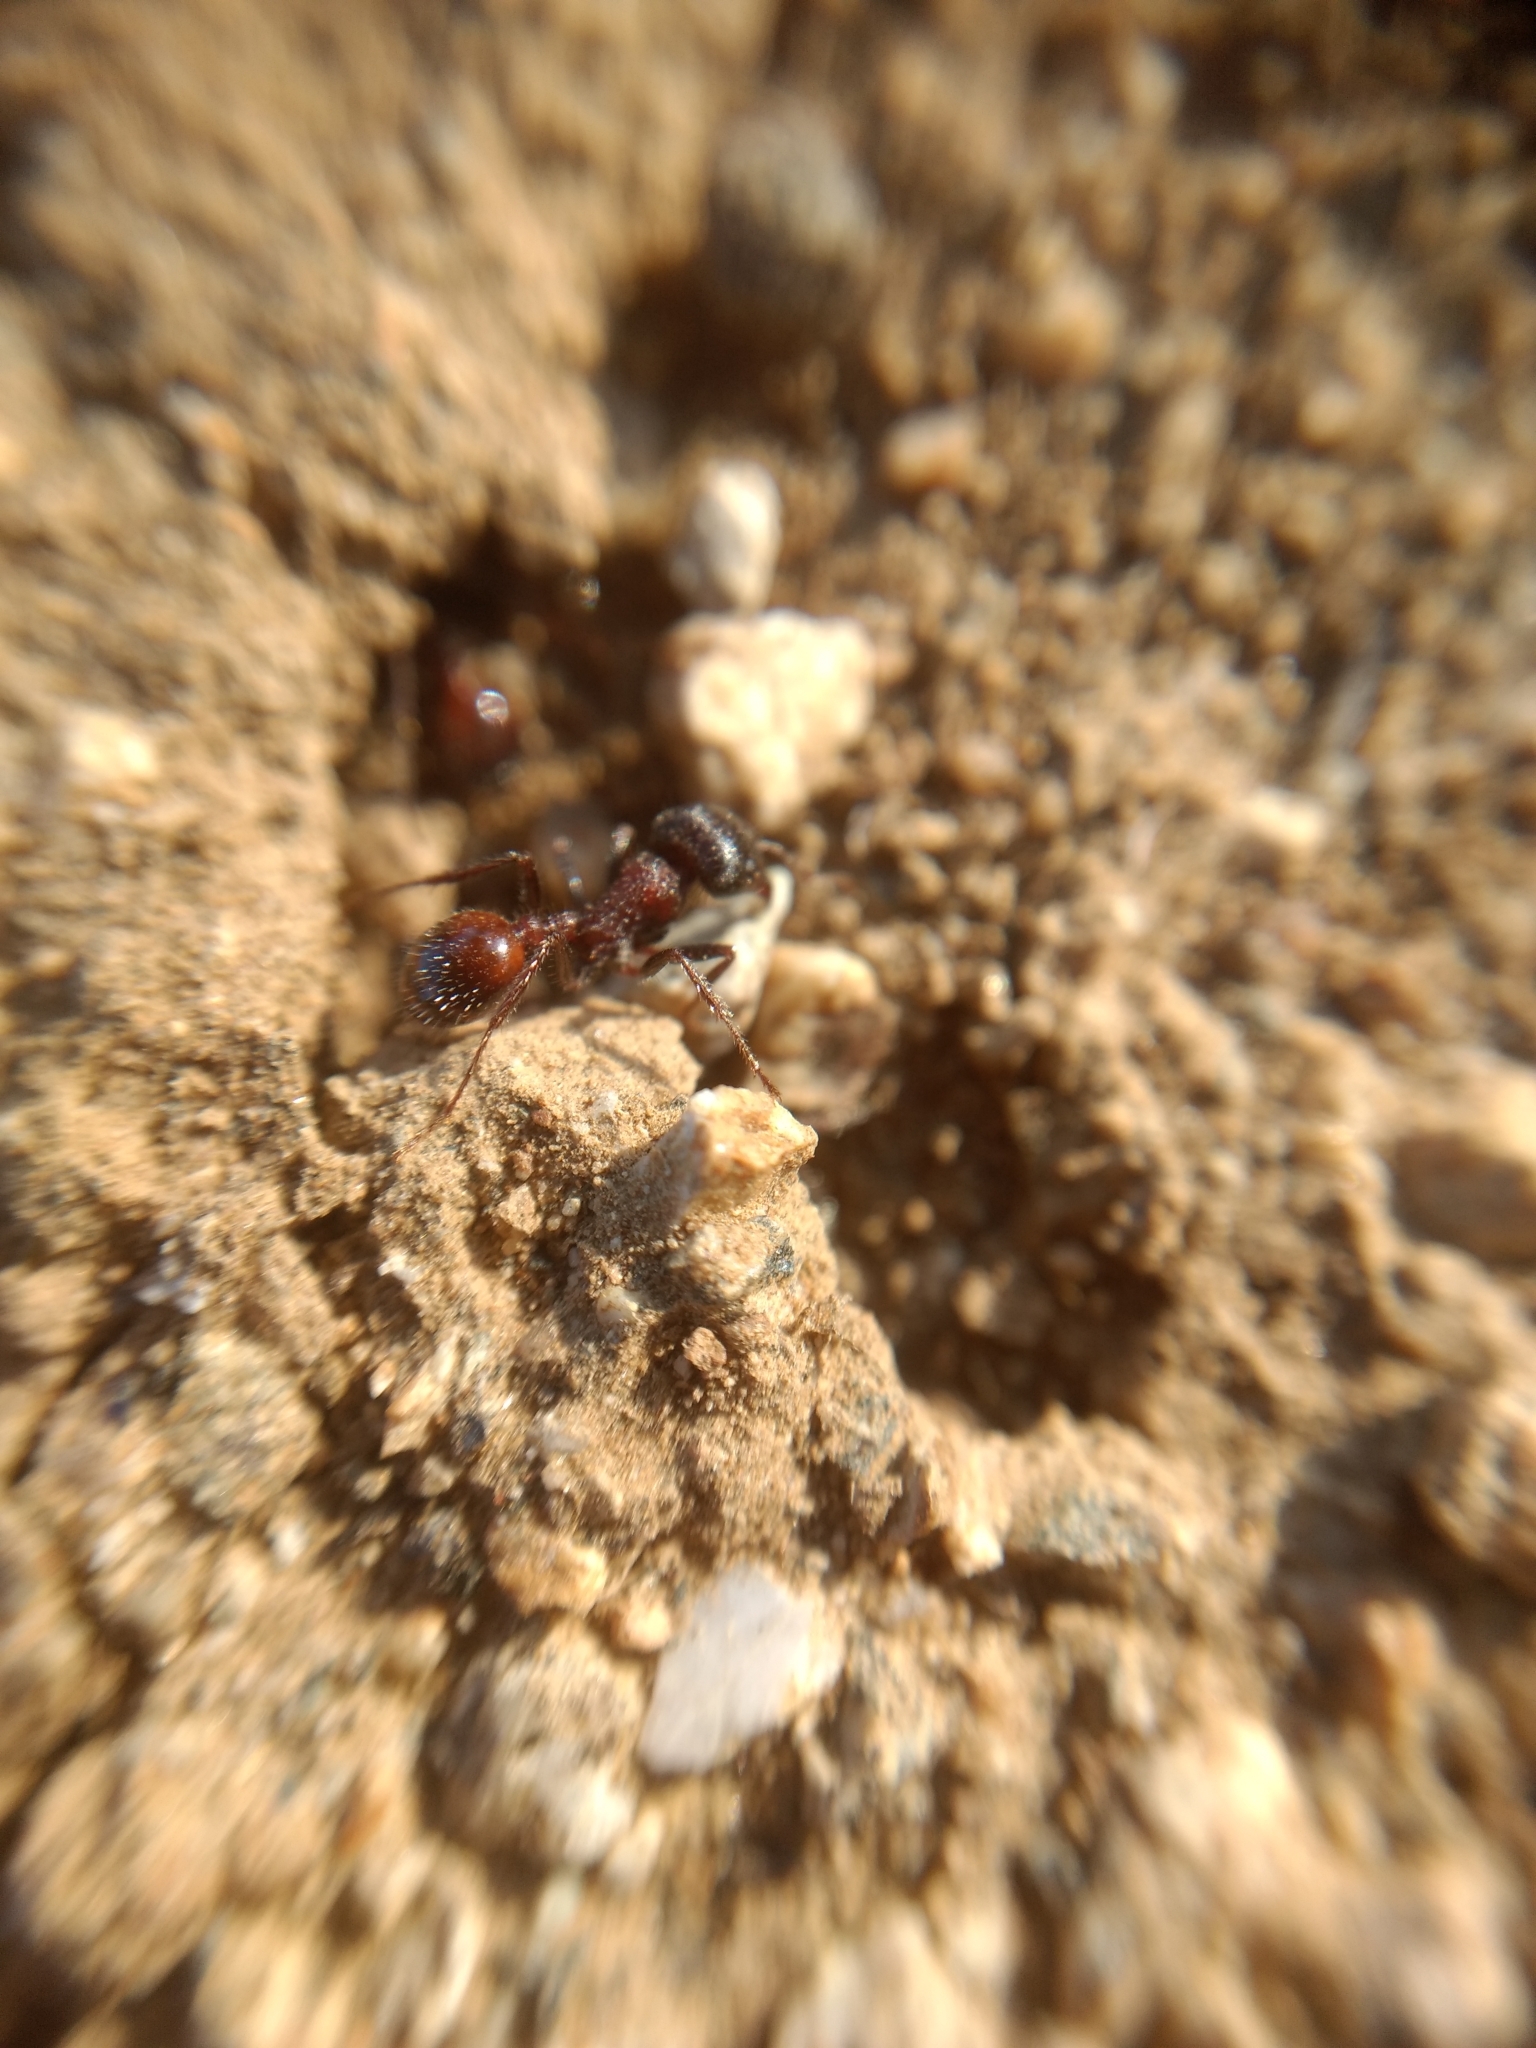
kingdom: Animalia
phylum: Arthropoda
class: Insecta
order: Hymenoptera
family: Formicidae
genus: Pogonomyrmex
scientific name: Pogonomyrmex rugosus
